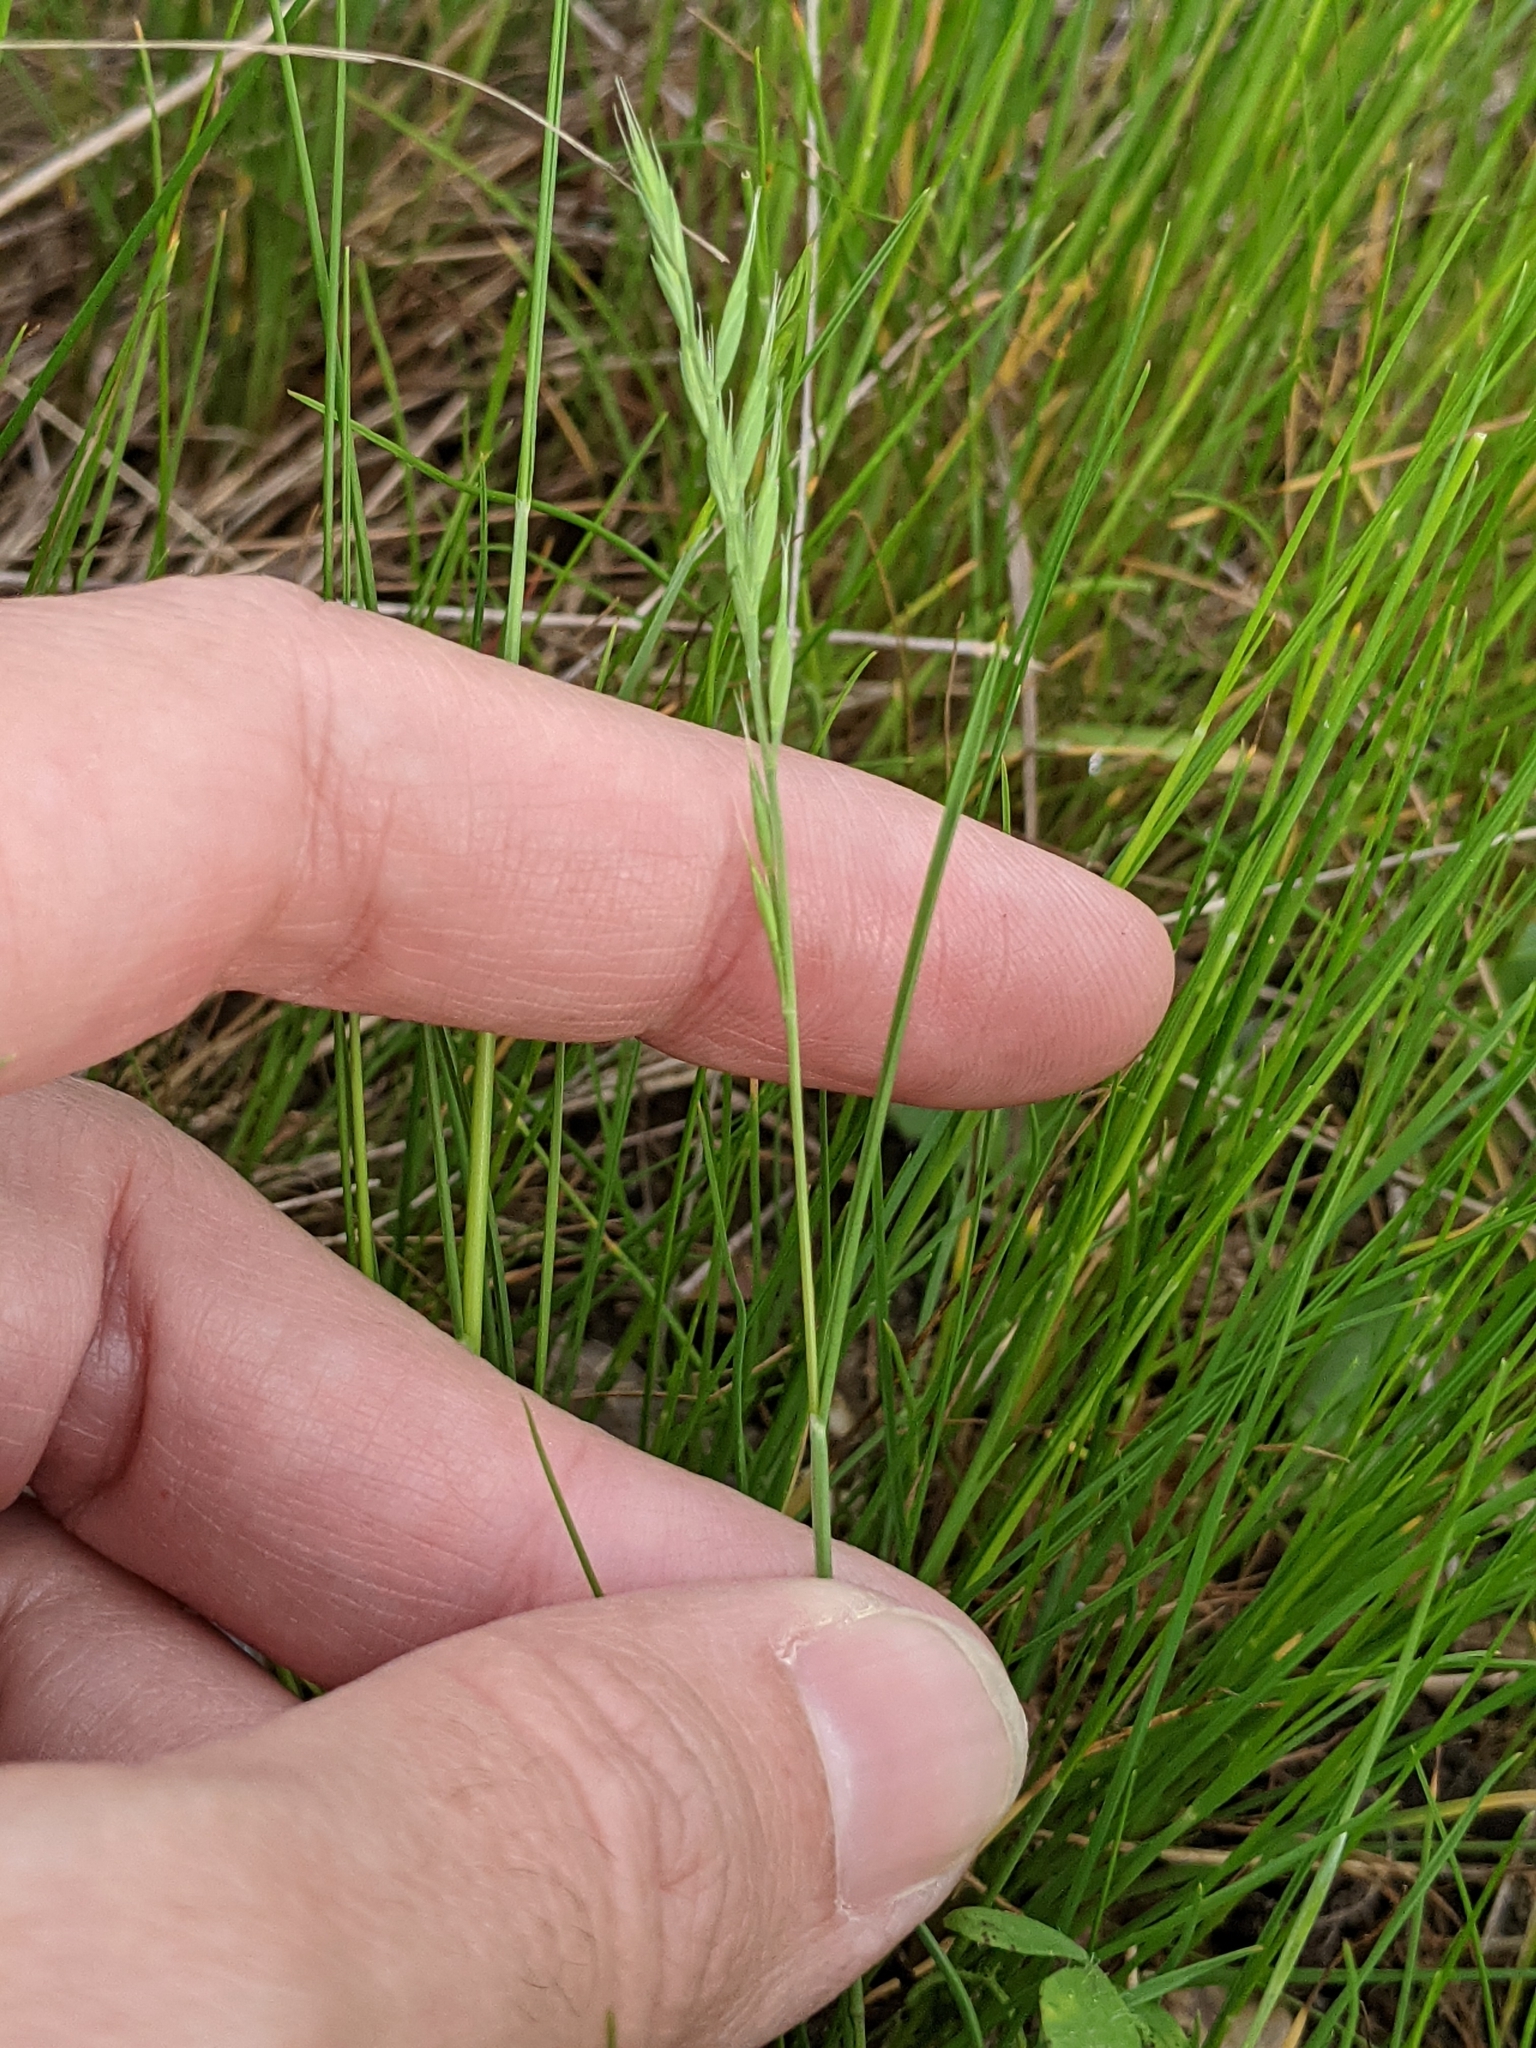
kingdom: Plantae
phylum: Tracheophyta
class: Liliopsida
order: Poales
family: Poaceae
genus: Festuca
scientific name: Festuca octoflora
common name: Sixweeks grass
